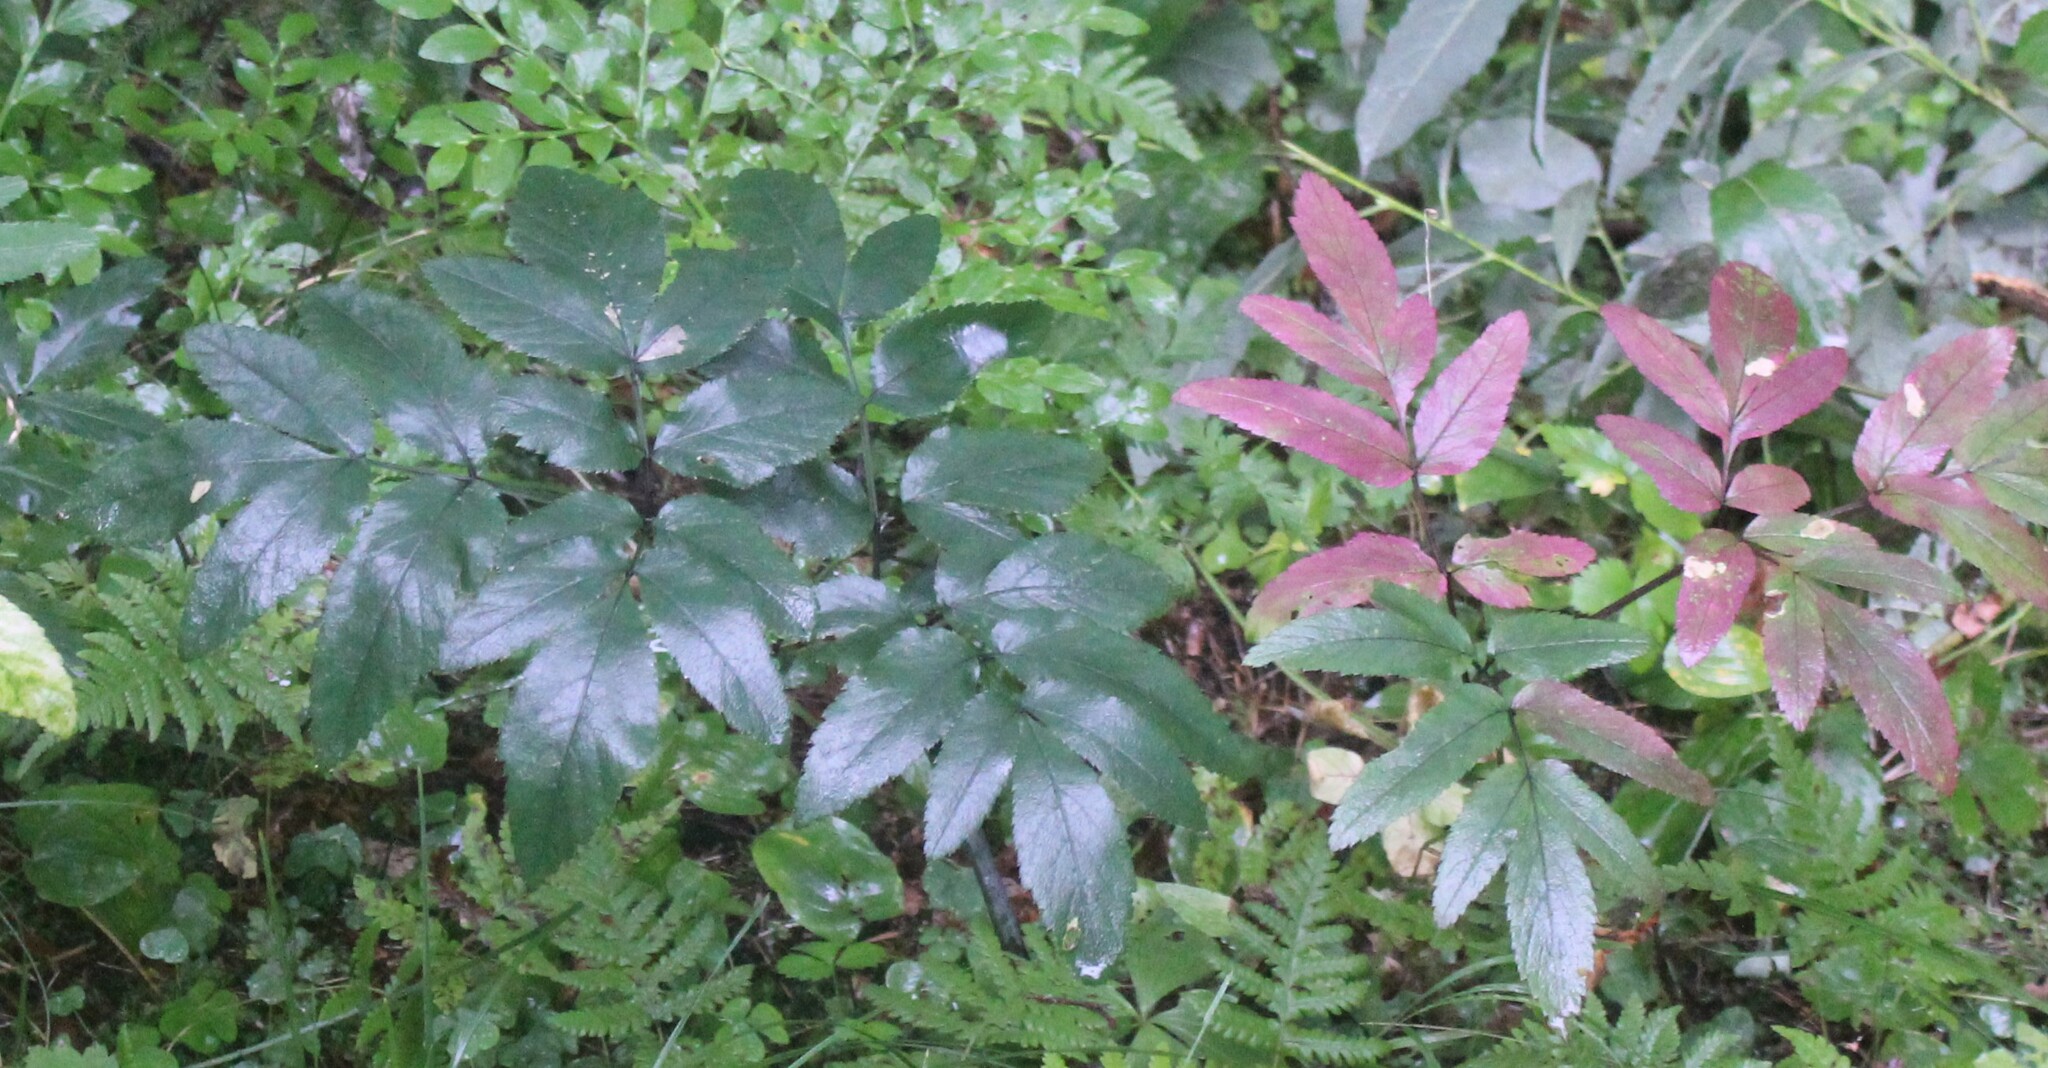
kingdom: Plantae
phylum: Tracheophyta
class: Magnoliopsida
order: Apiales
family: Apiaceae
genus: Angelica
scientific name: Angelica sylvestris
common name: Wild angelica
